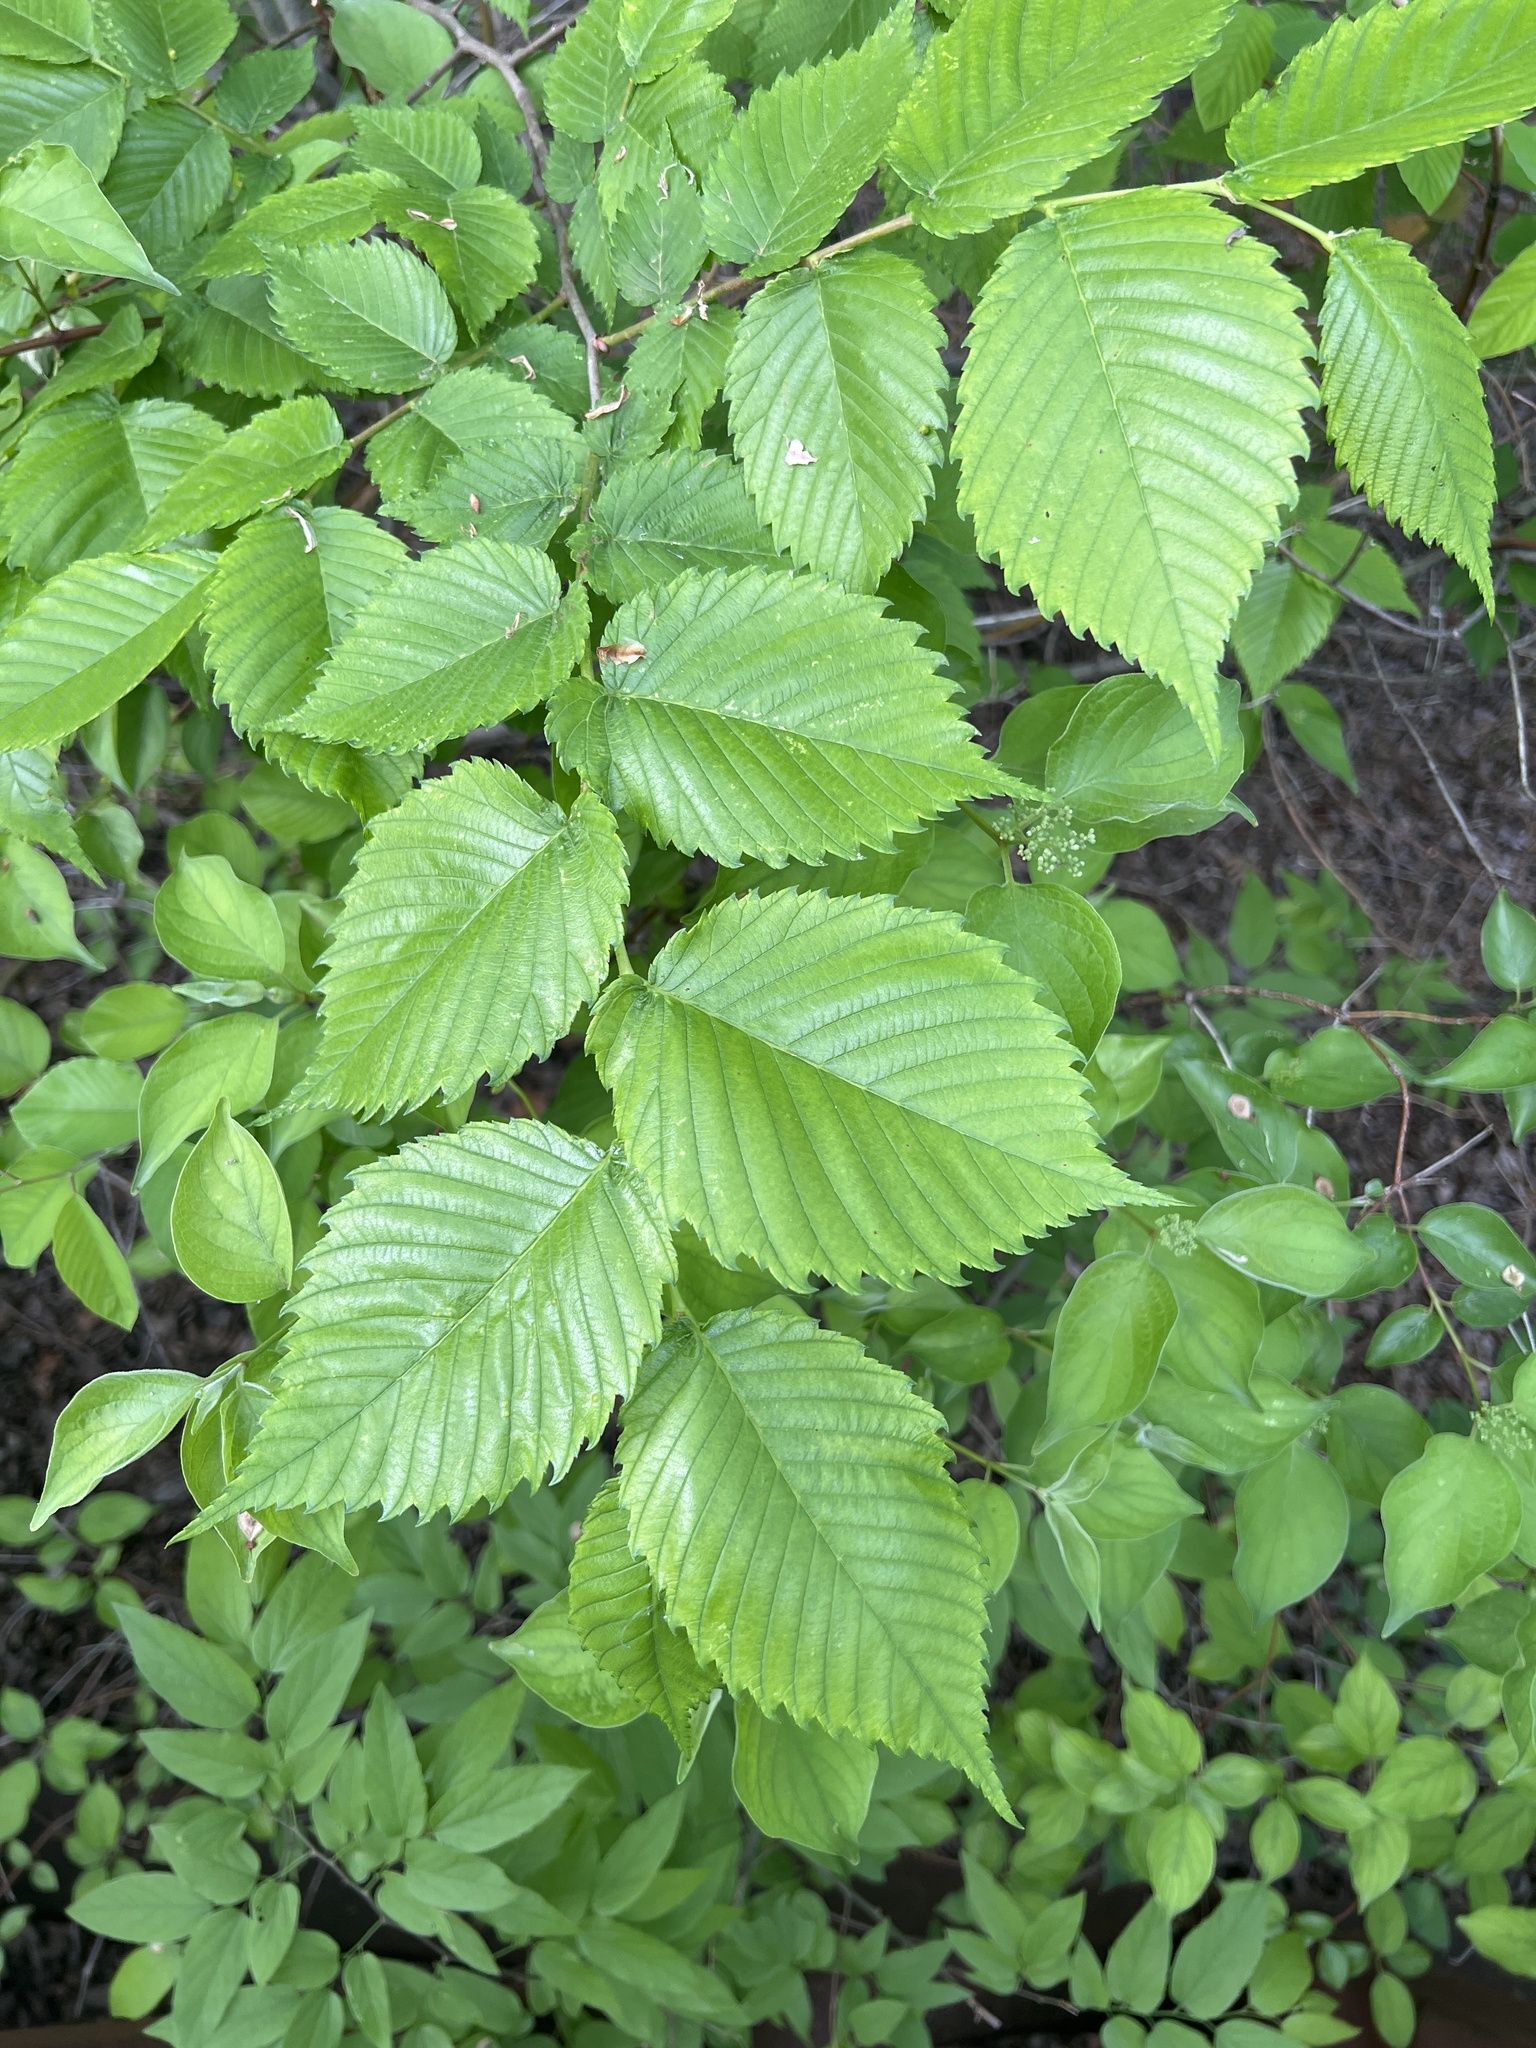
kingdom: Plantae
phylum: Tracheophyta
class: Magnoliopsida
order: Rosales
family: Ulmaceae
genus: Ulmus
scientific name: Ulmus americana
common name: American elm
